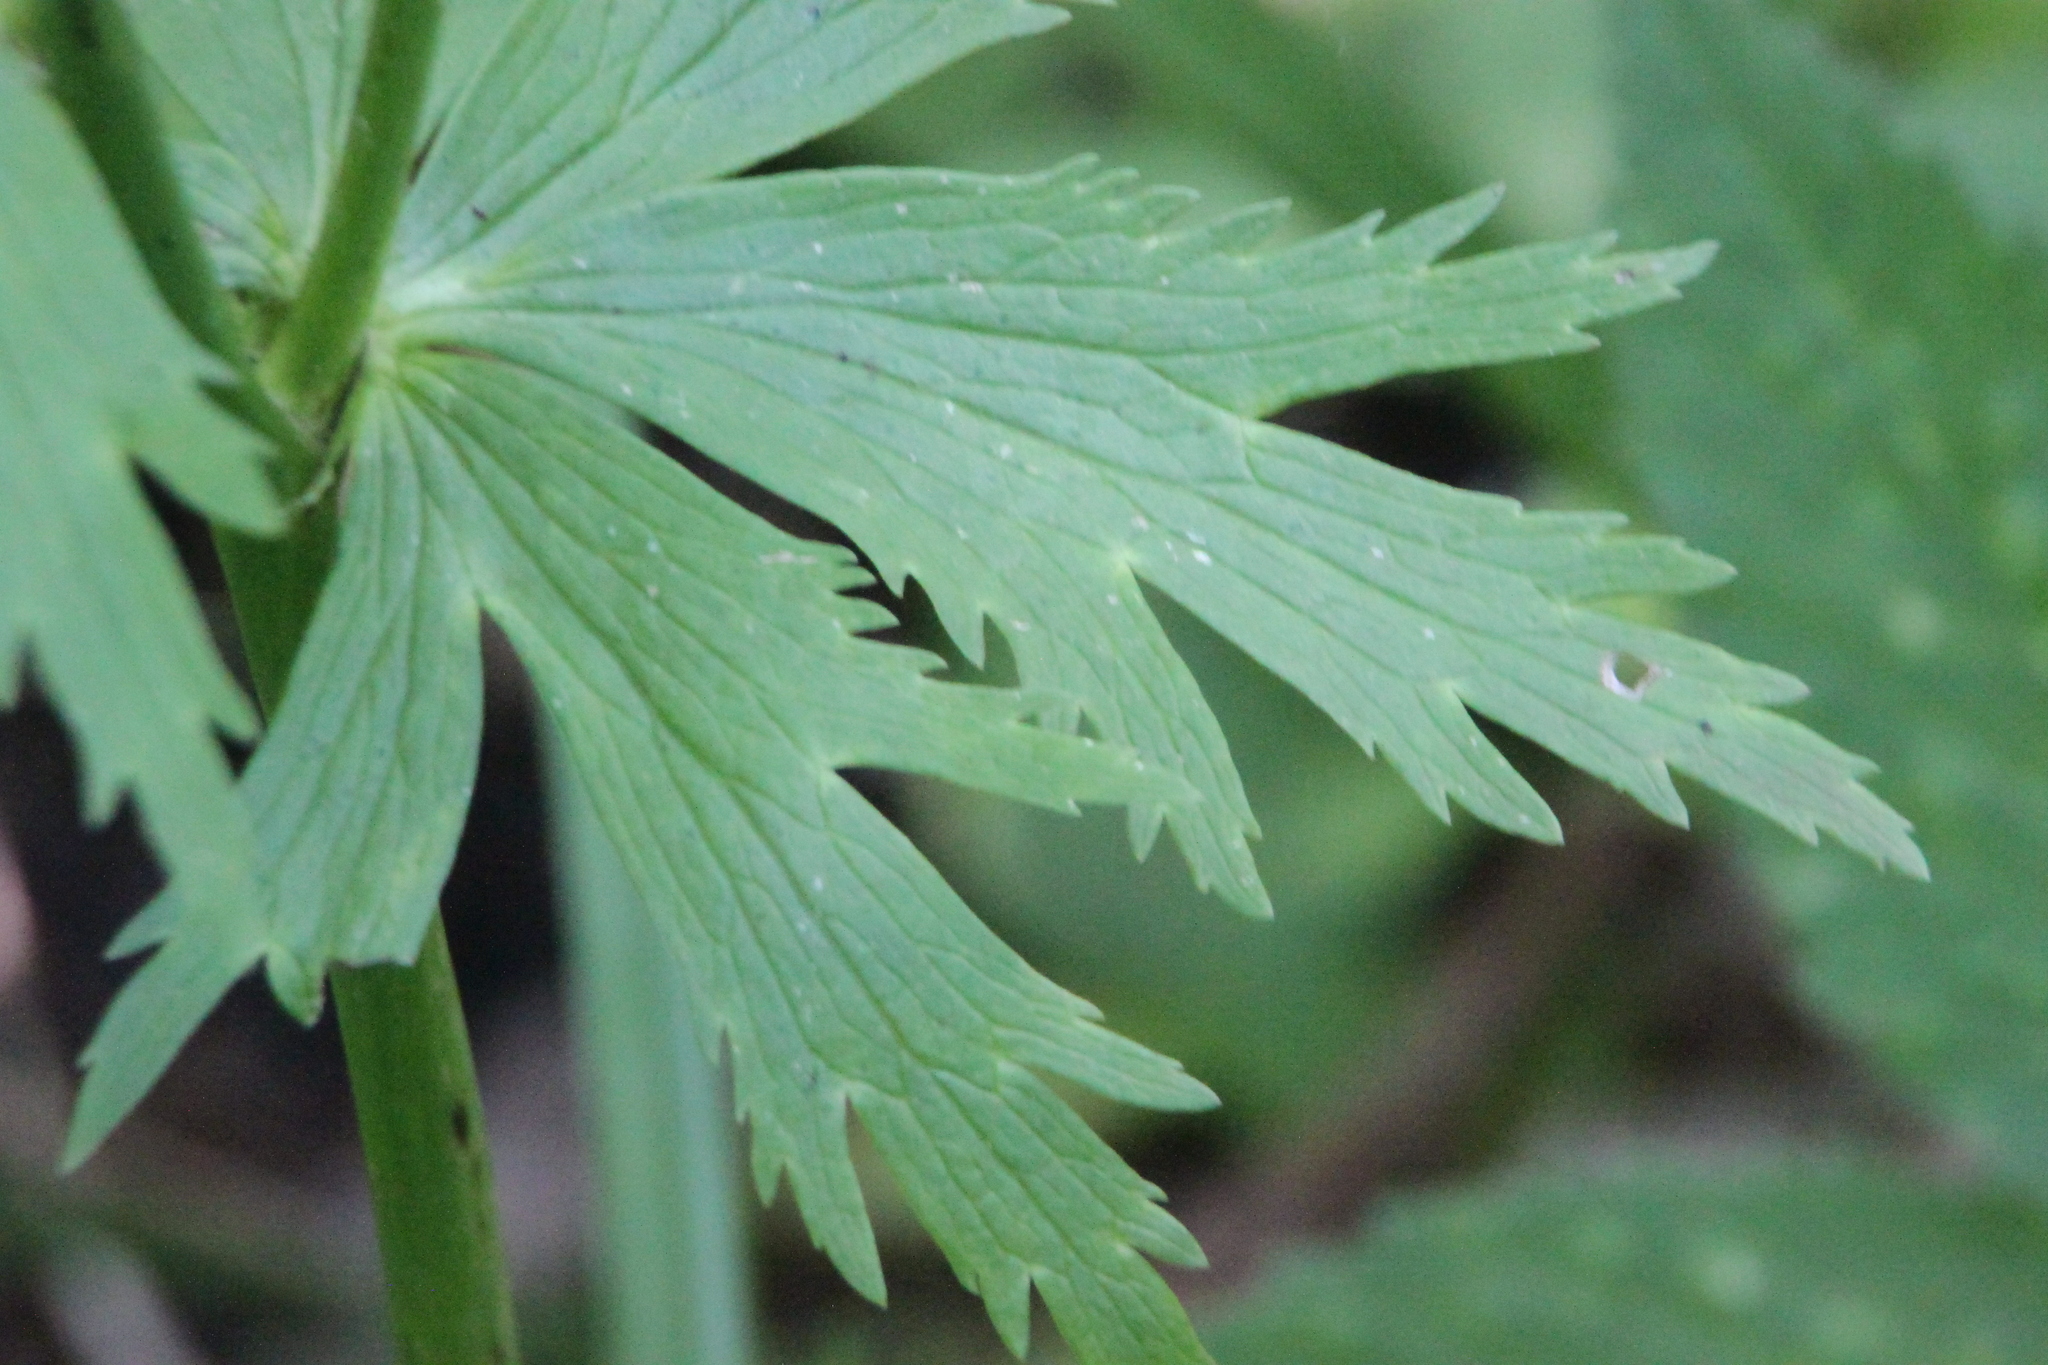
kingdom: Plantae
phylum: Tracheophyta
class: Magnoliopsida
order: Ranunculales
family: Ranunculaceae
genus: Trollius
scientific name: Trollius europaeus
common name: European globeflower
